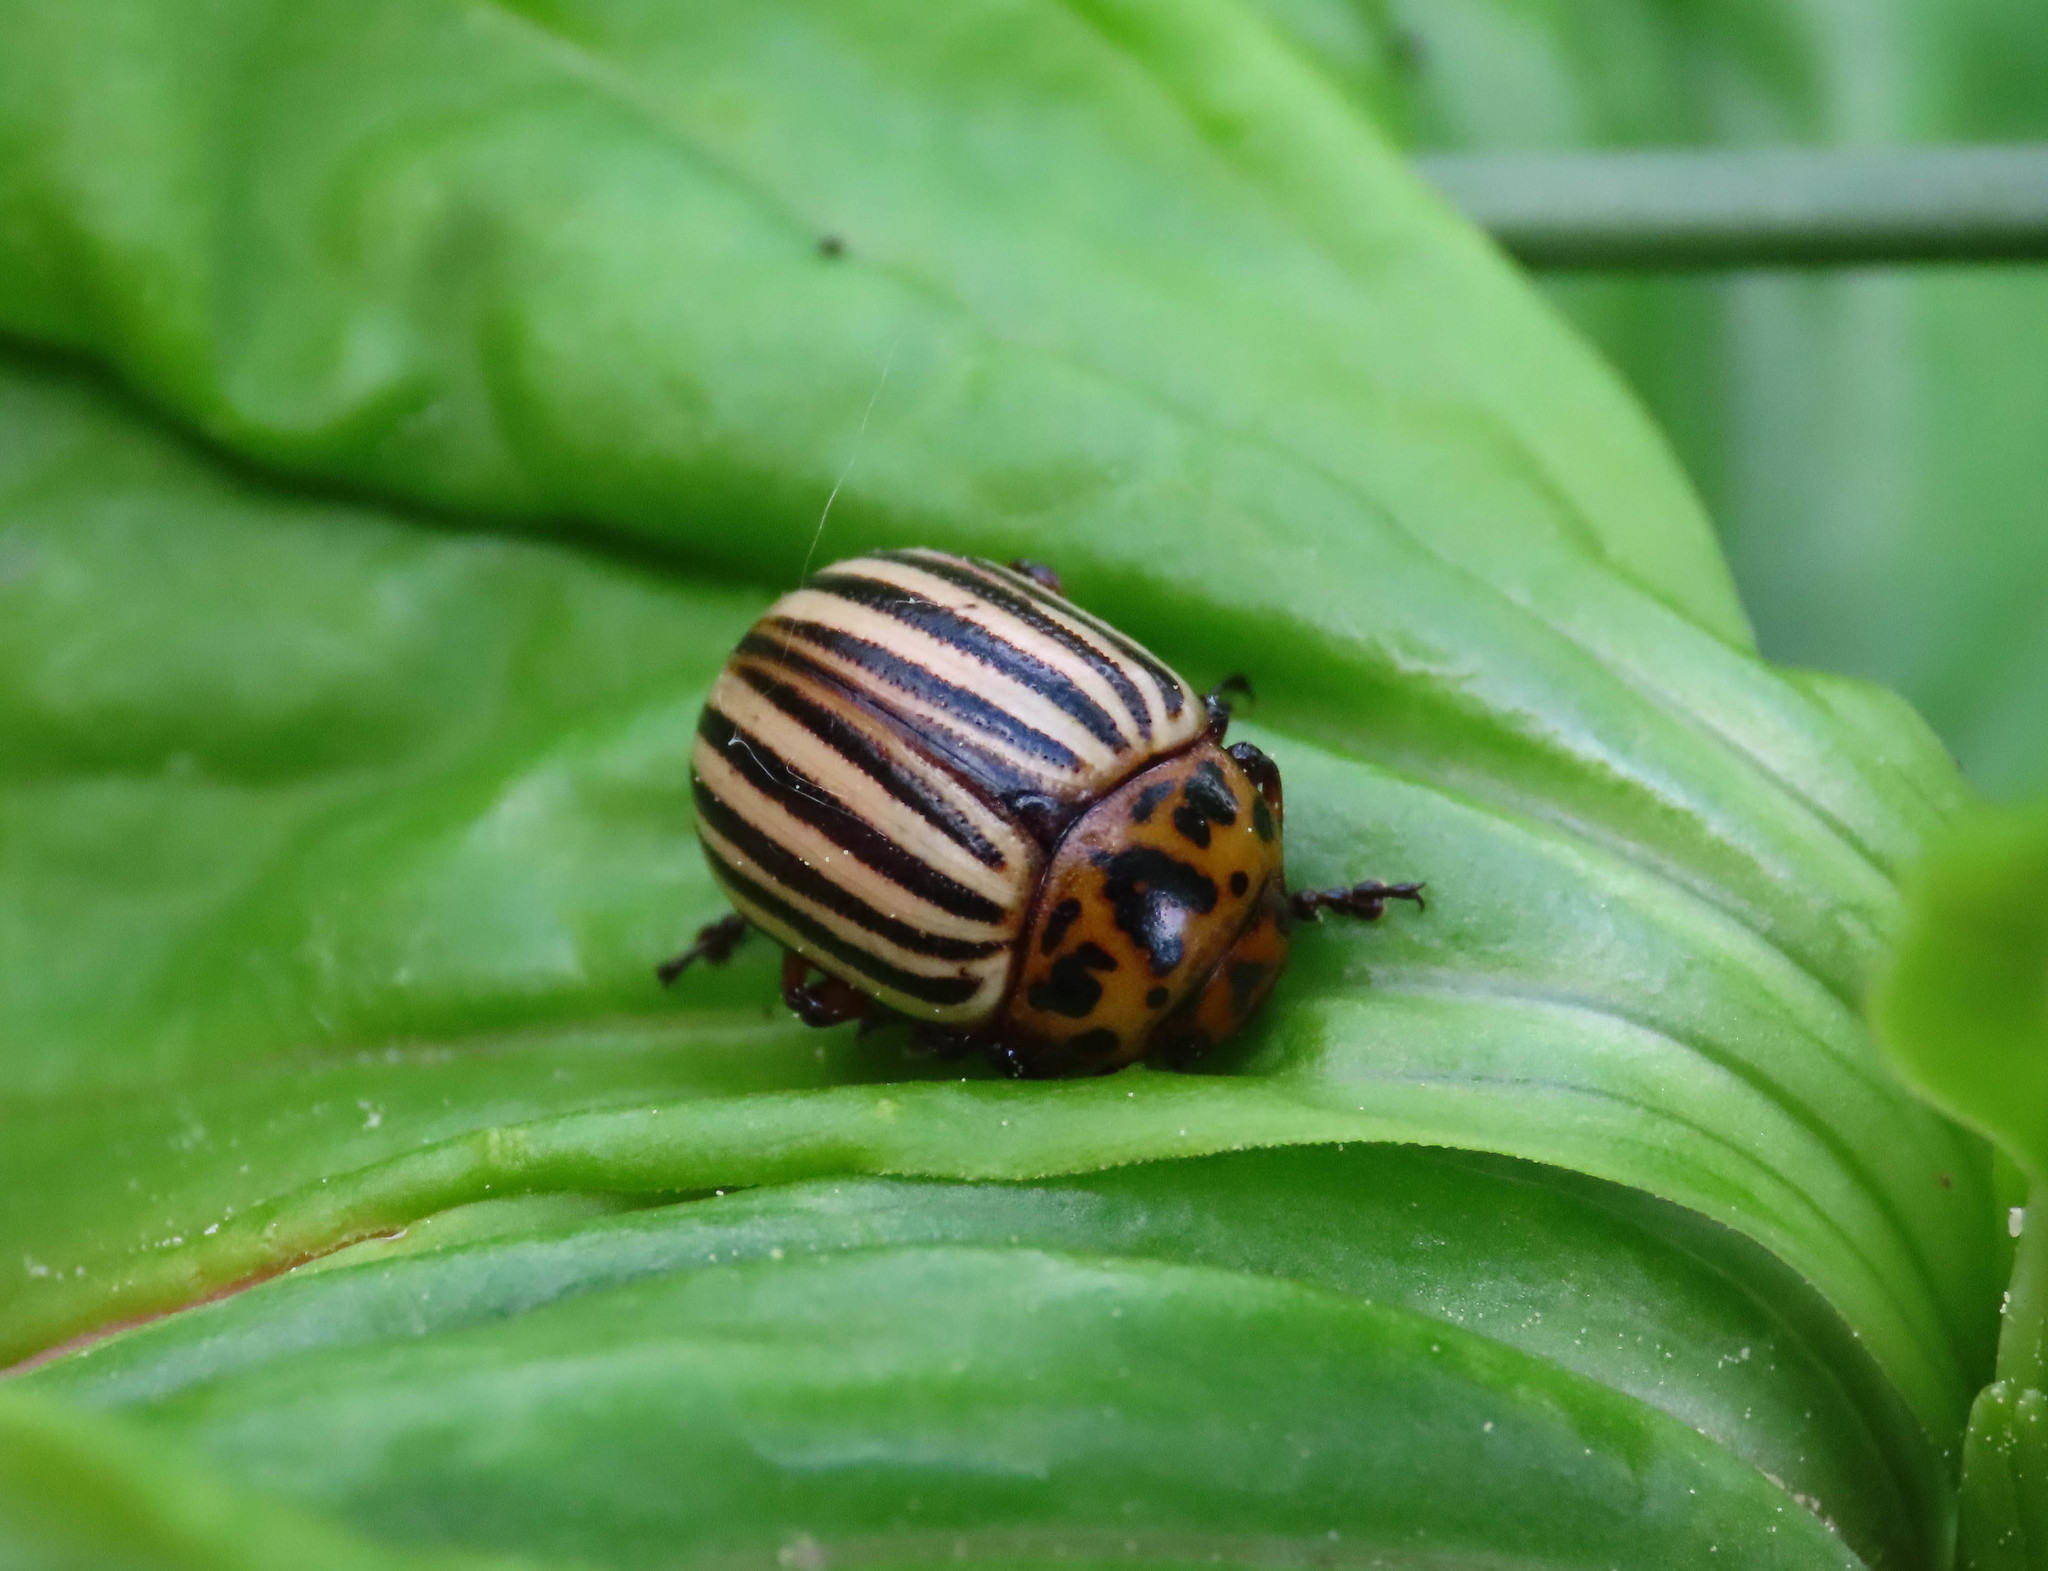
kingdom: Animalia
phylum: Arthropoda
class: Insecta
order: Coleoptera
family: Chrysomelidae
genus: Leptinotarsa
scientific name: Leptinotarsa decemlineata
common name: Colorado potato beetle
